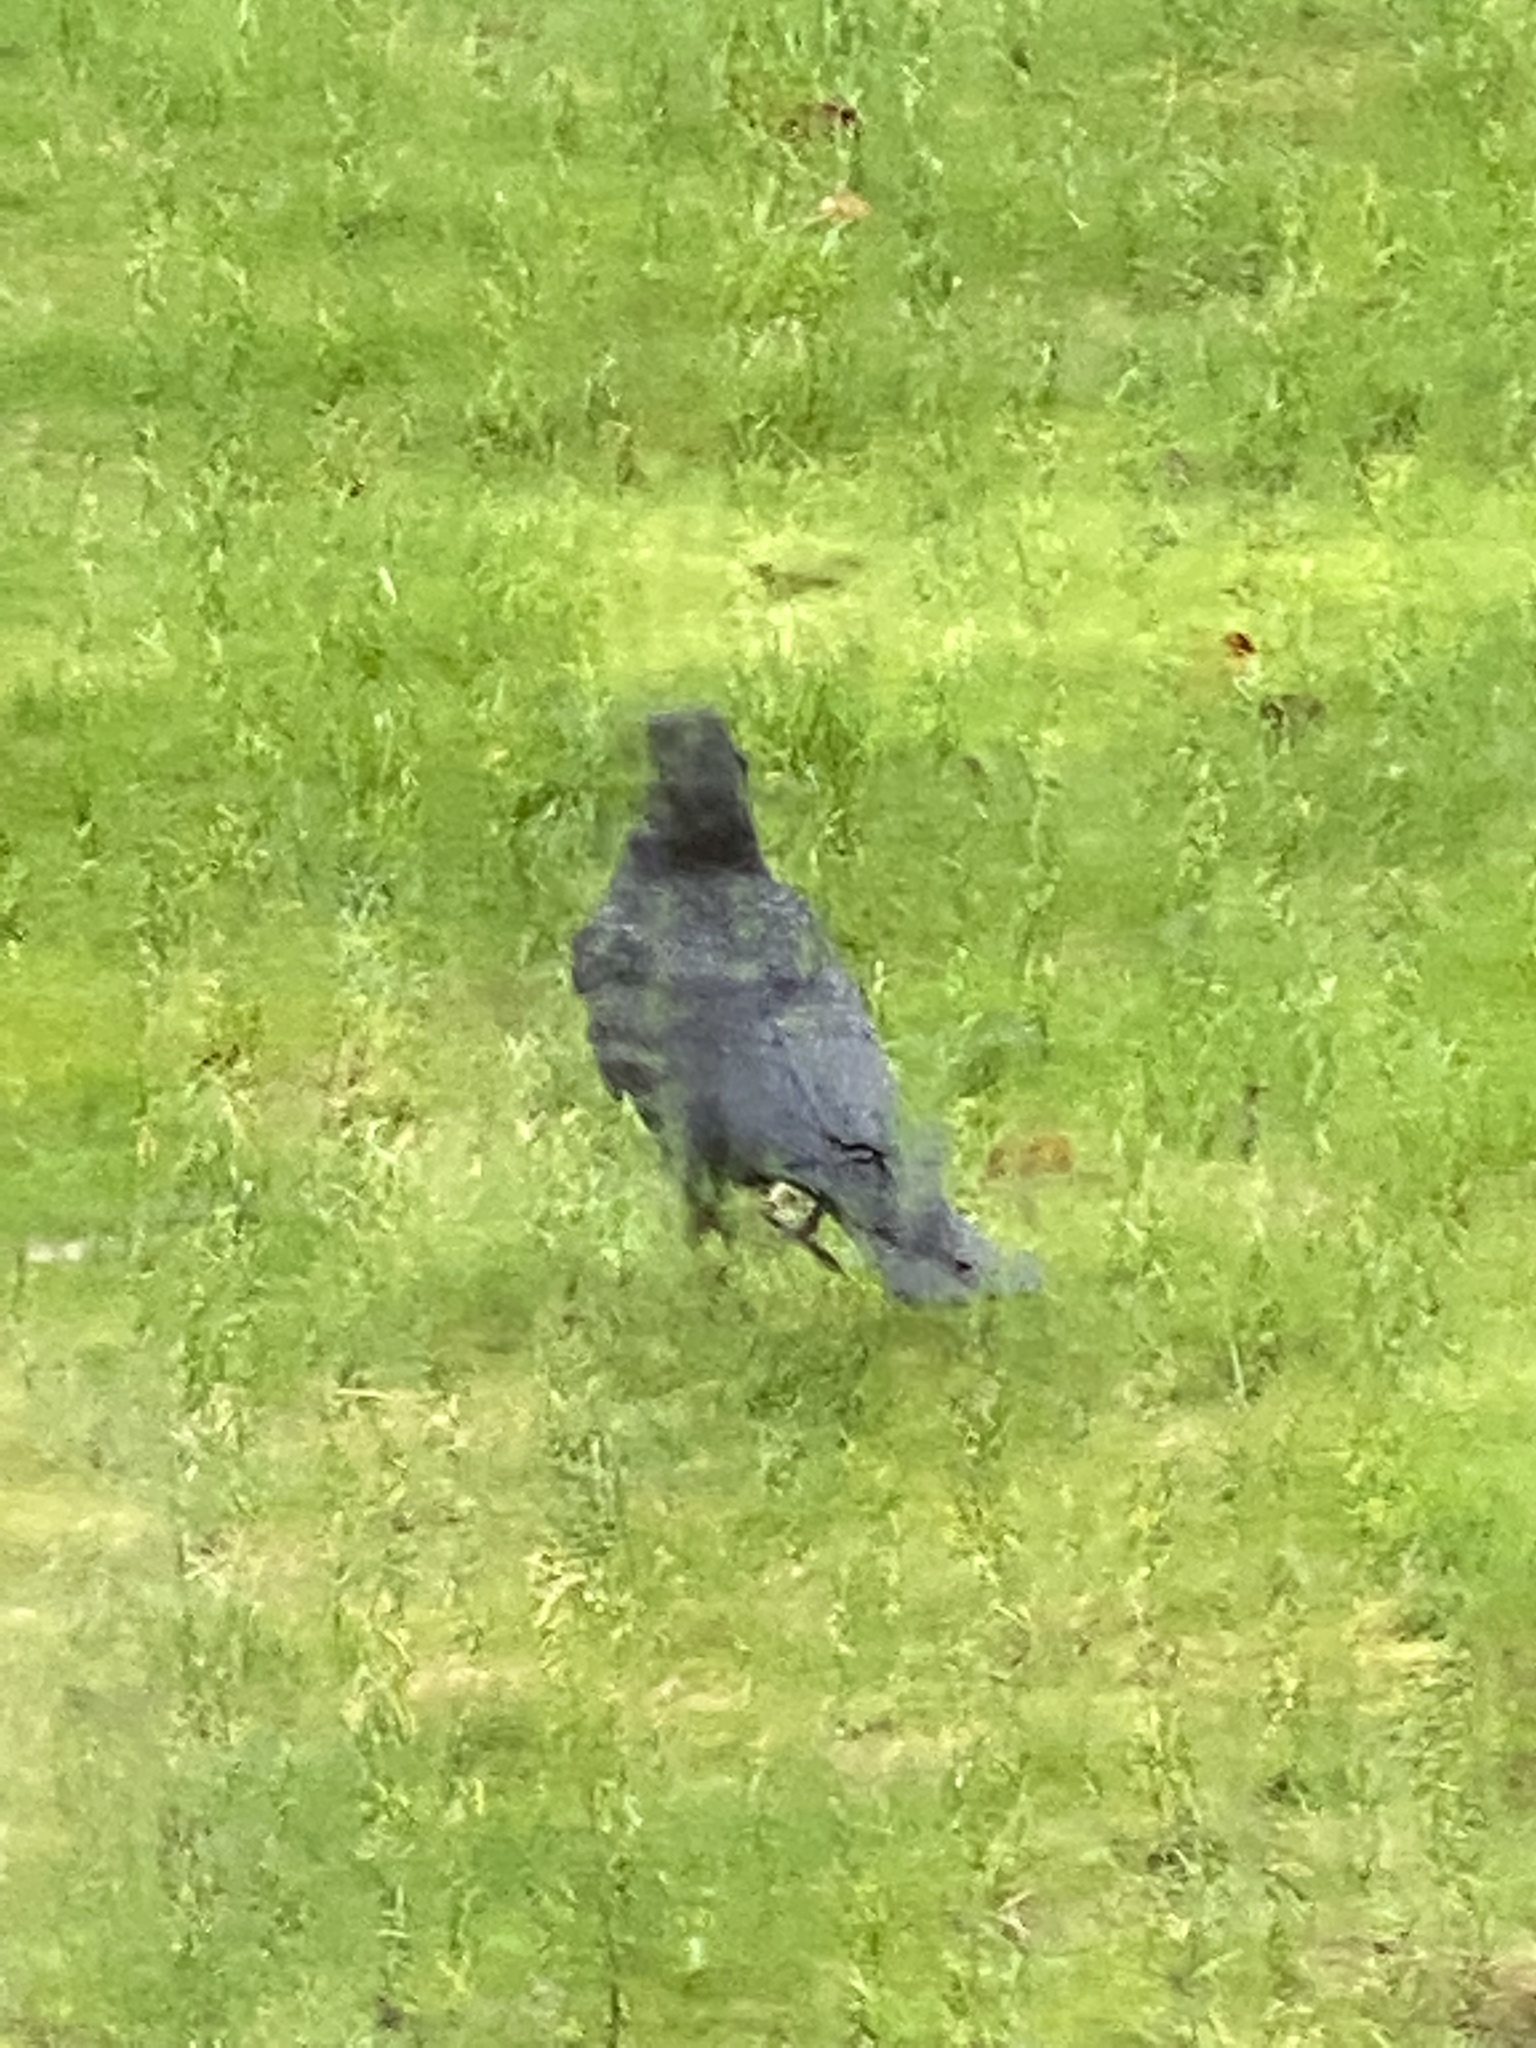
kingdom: Animalia
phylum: Chordata
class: Aves
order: Passeriformes
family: Corvidae
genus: Corvus
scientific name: Corvus brachyrhynchos
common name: American crow
